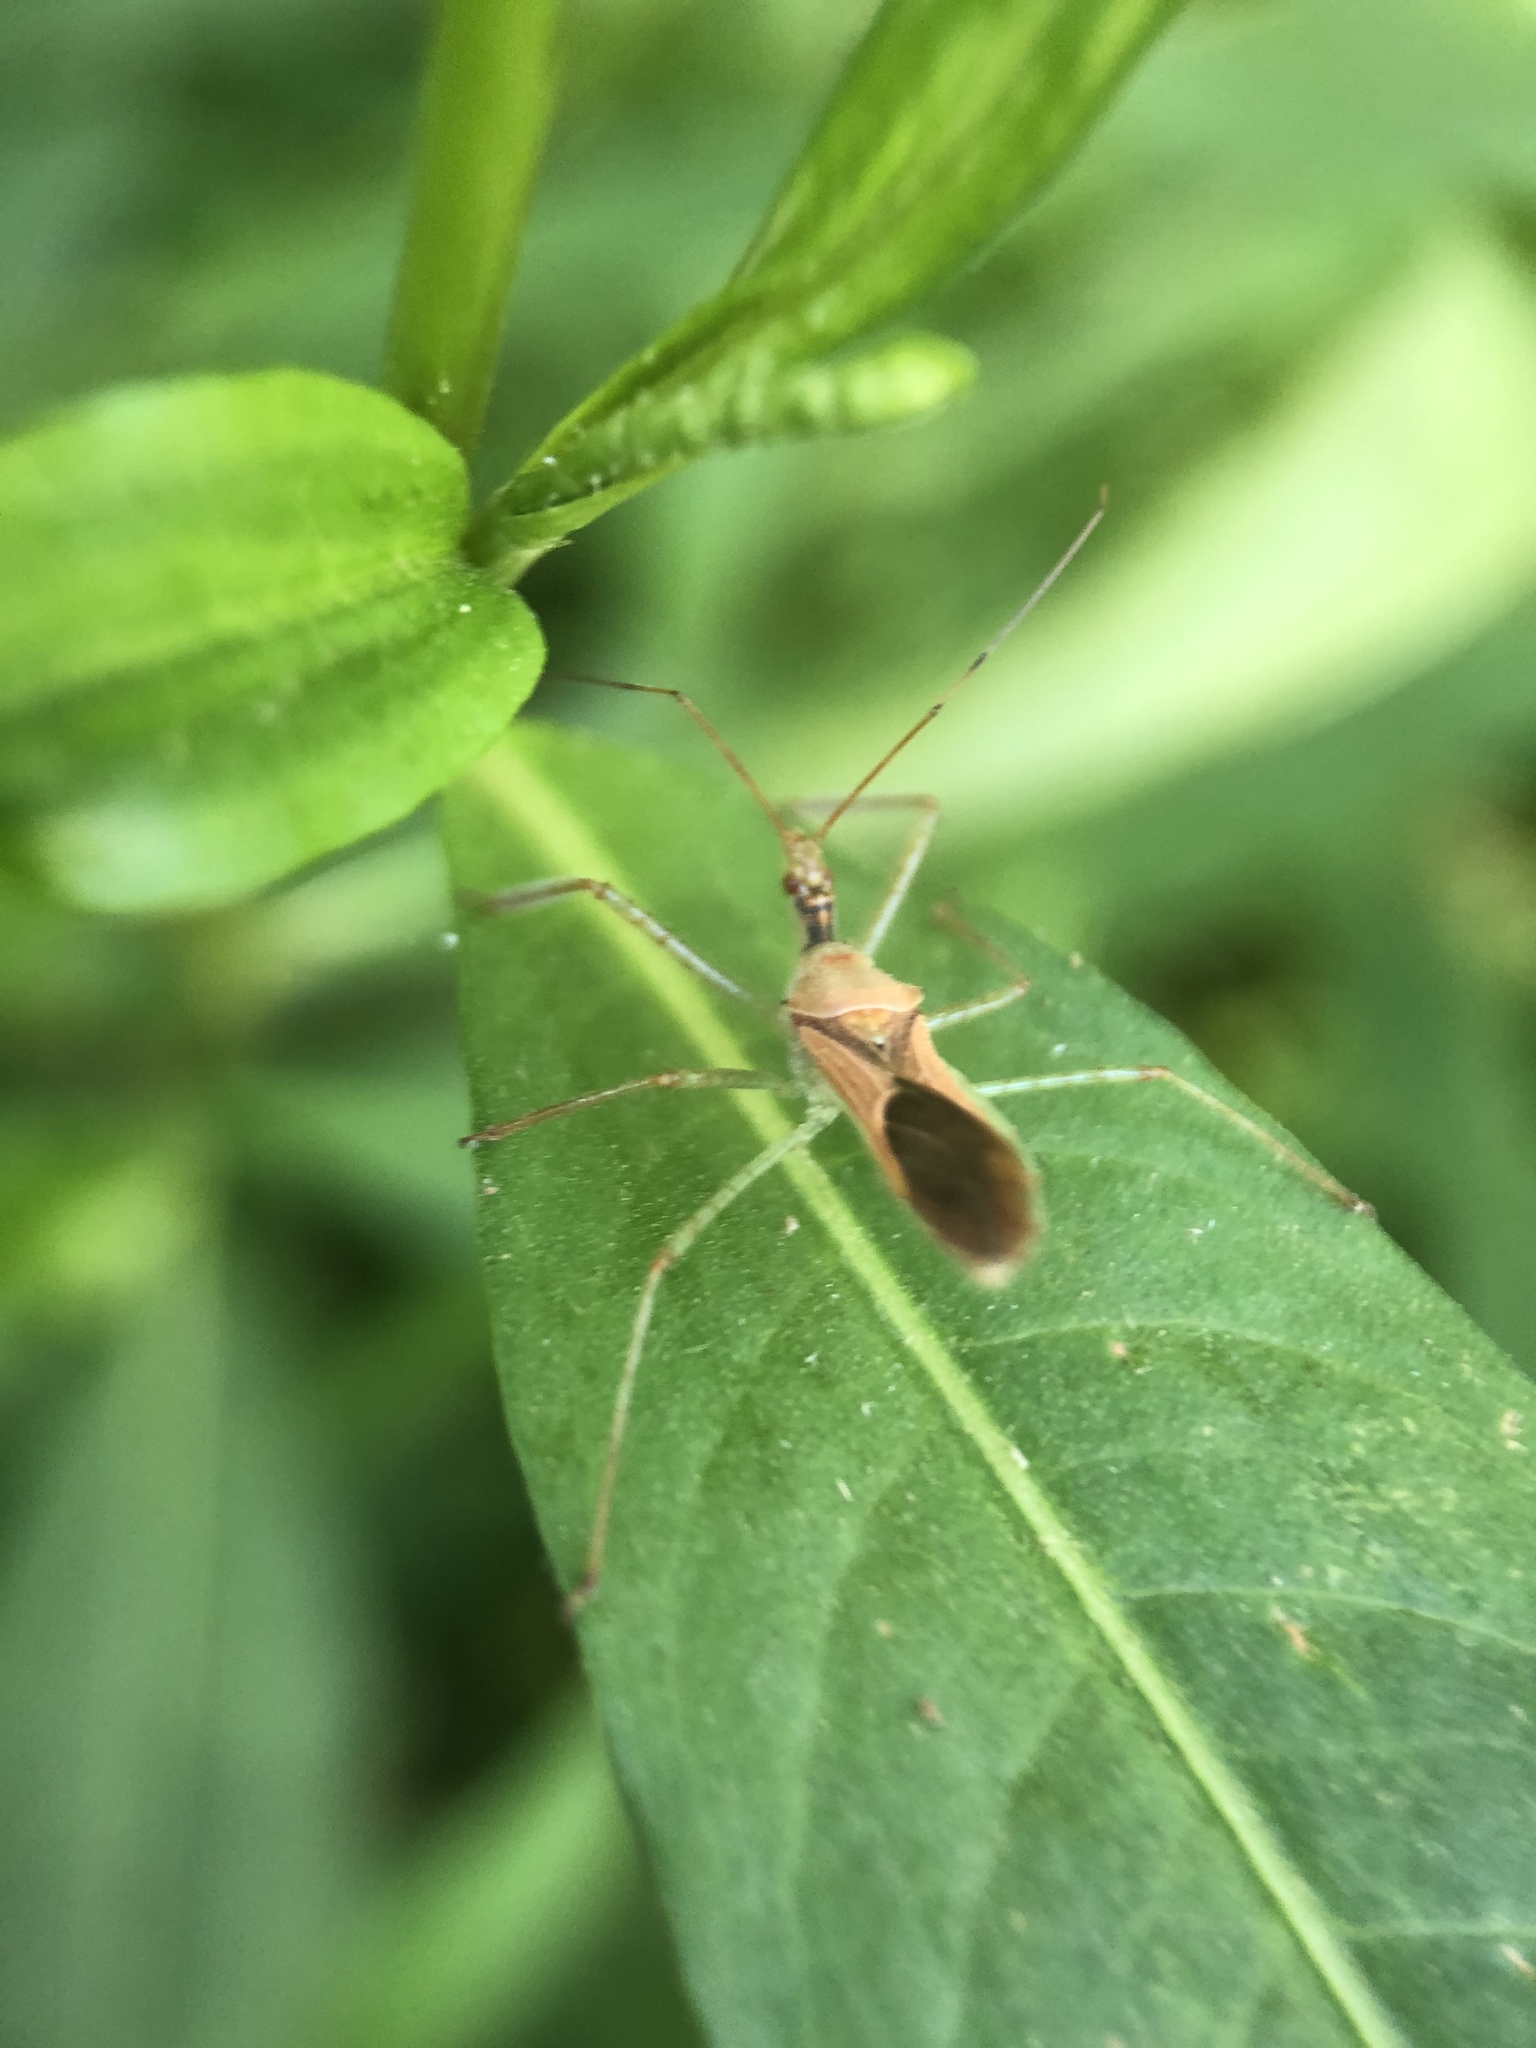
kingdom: Animalia
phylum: Arthropoda
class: Insecta
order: Hemiptera
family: Reduviidae
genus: Zelus
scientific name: Zelus renardii
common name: Assassin bug
